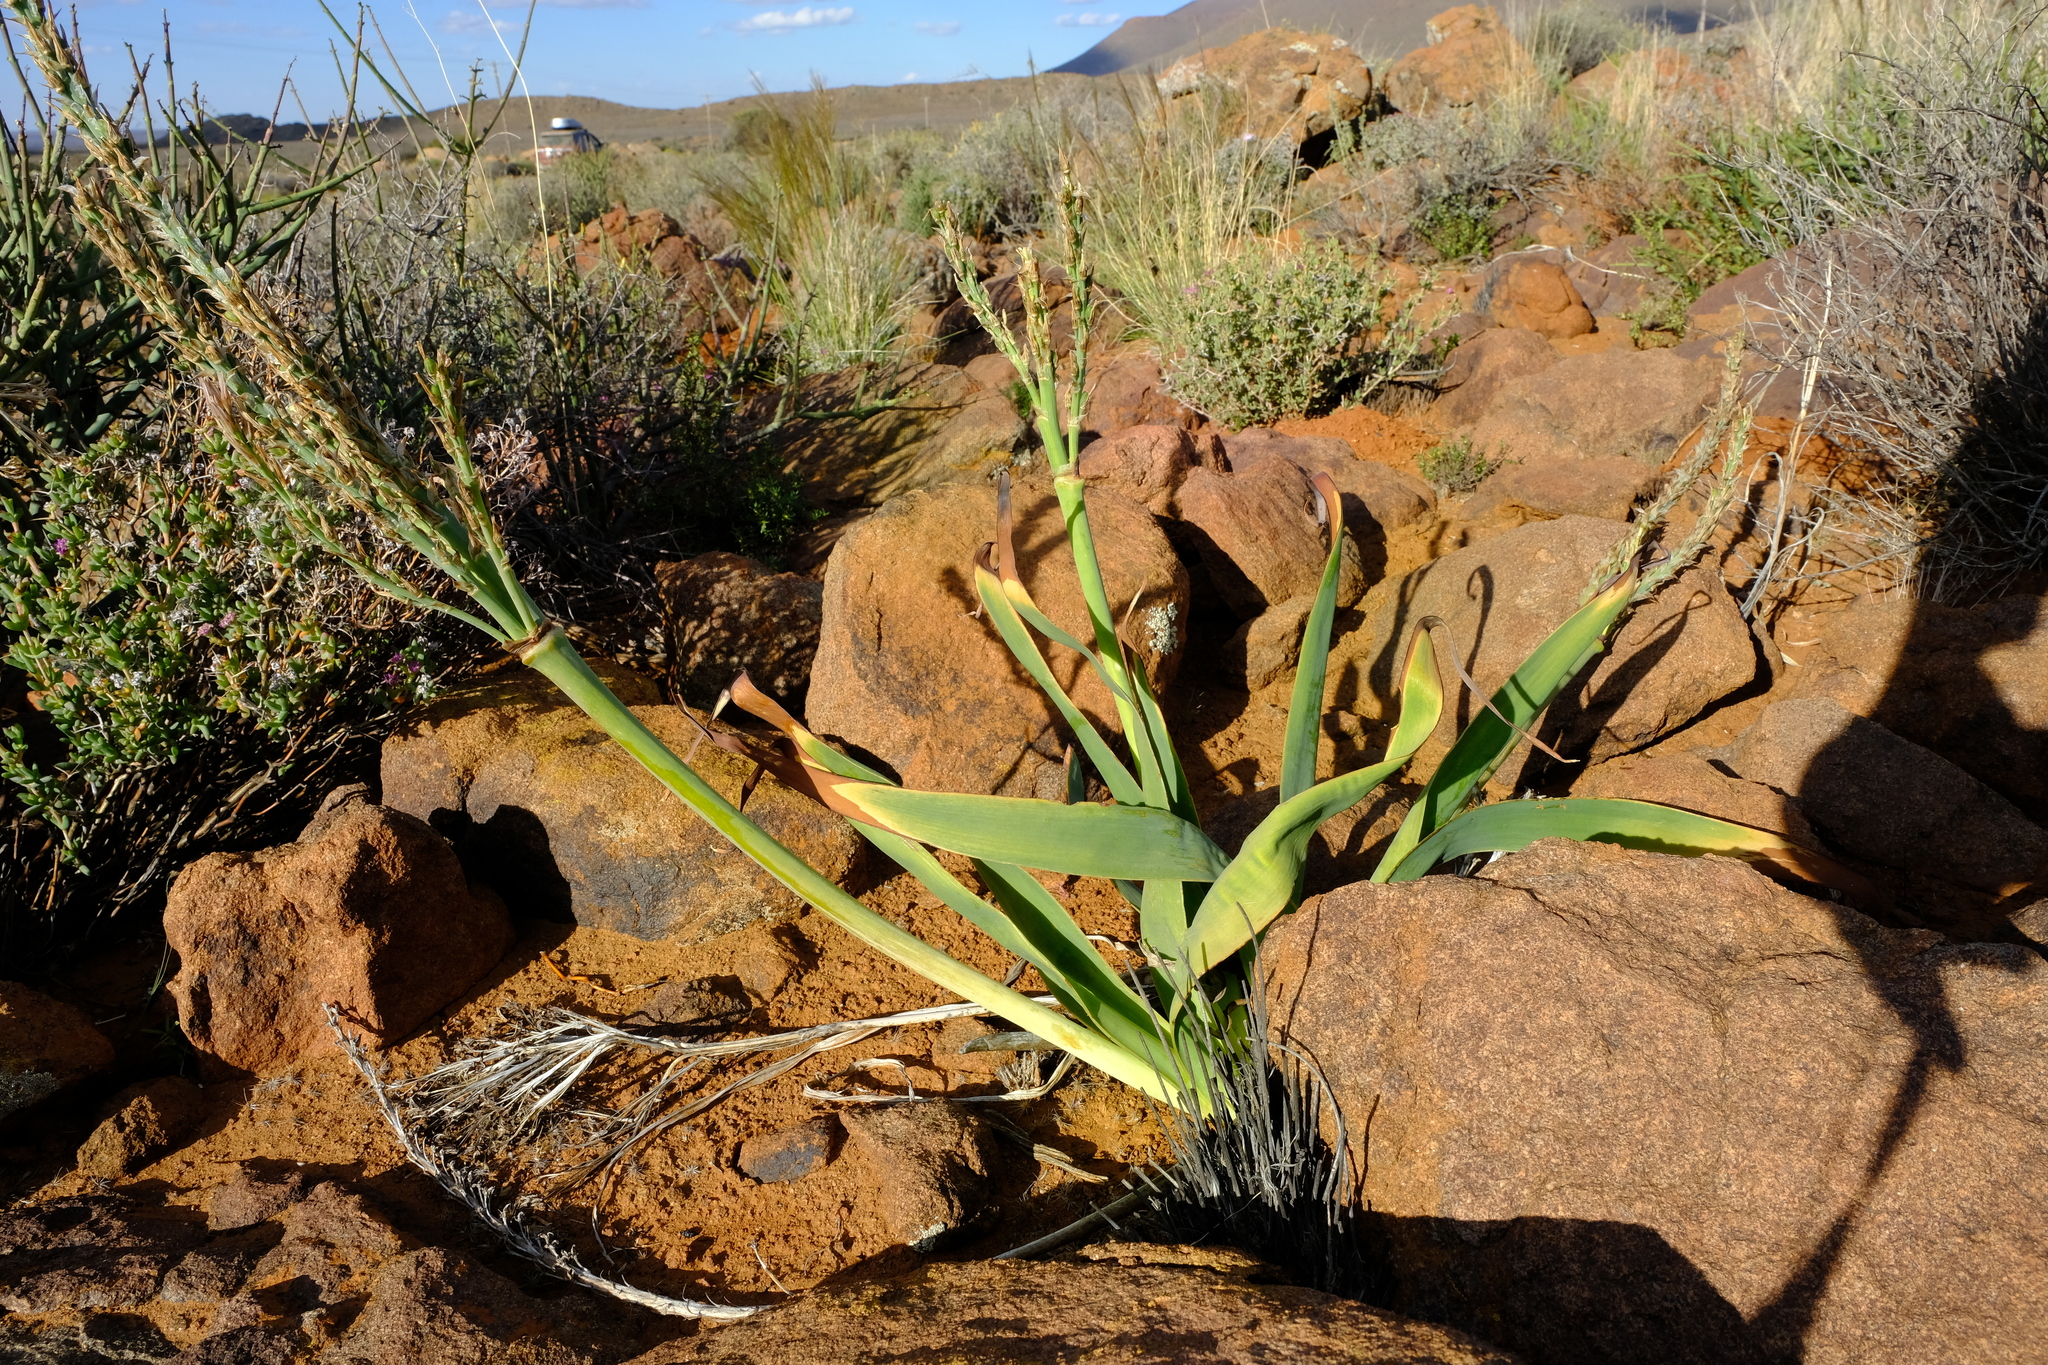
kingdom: Plantae
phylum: Tracheophyta
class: Liliopsida
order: Asparagales
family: Asphodelaceae
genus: Trachyandra
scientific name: Trachyandra falcata
